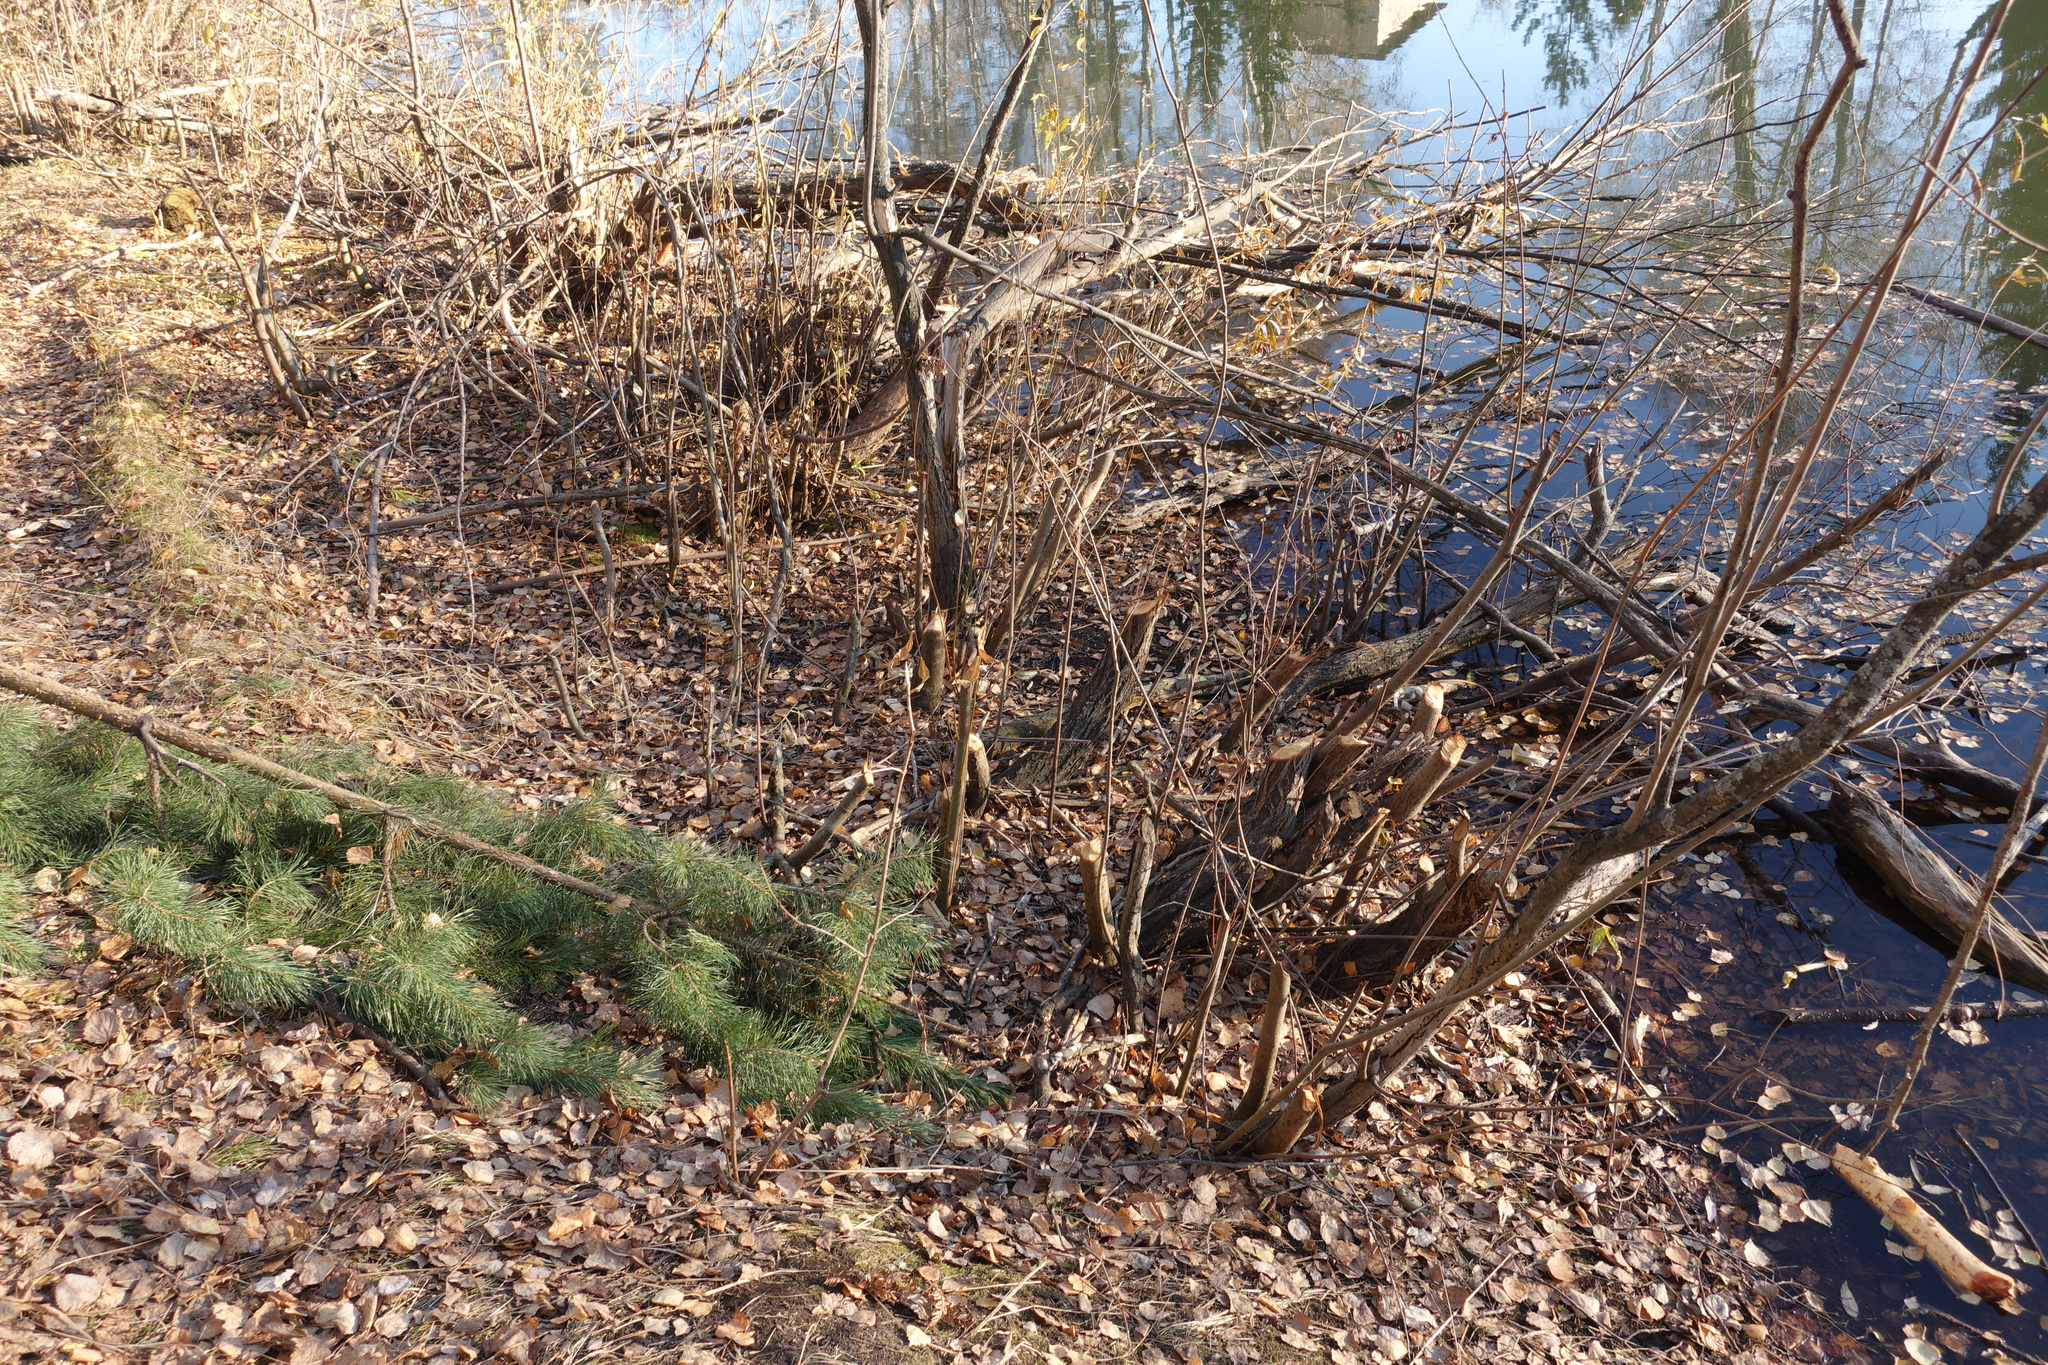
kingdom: Animalia
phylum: Chordata
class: Mammalia
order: Rodentia
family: Castoridae
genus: Castor
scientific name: Castor fiber
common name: Eurasian beaver
